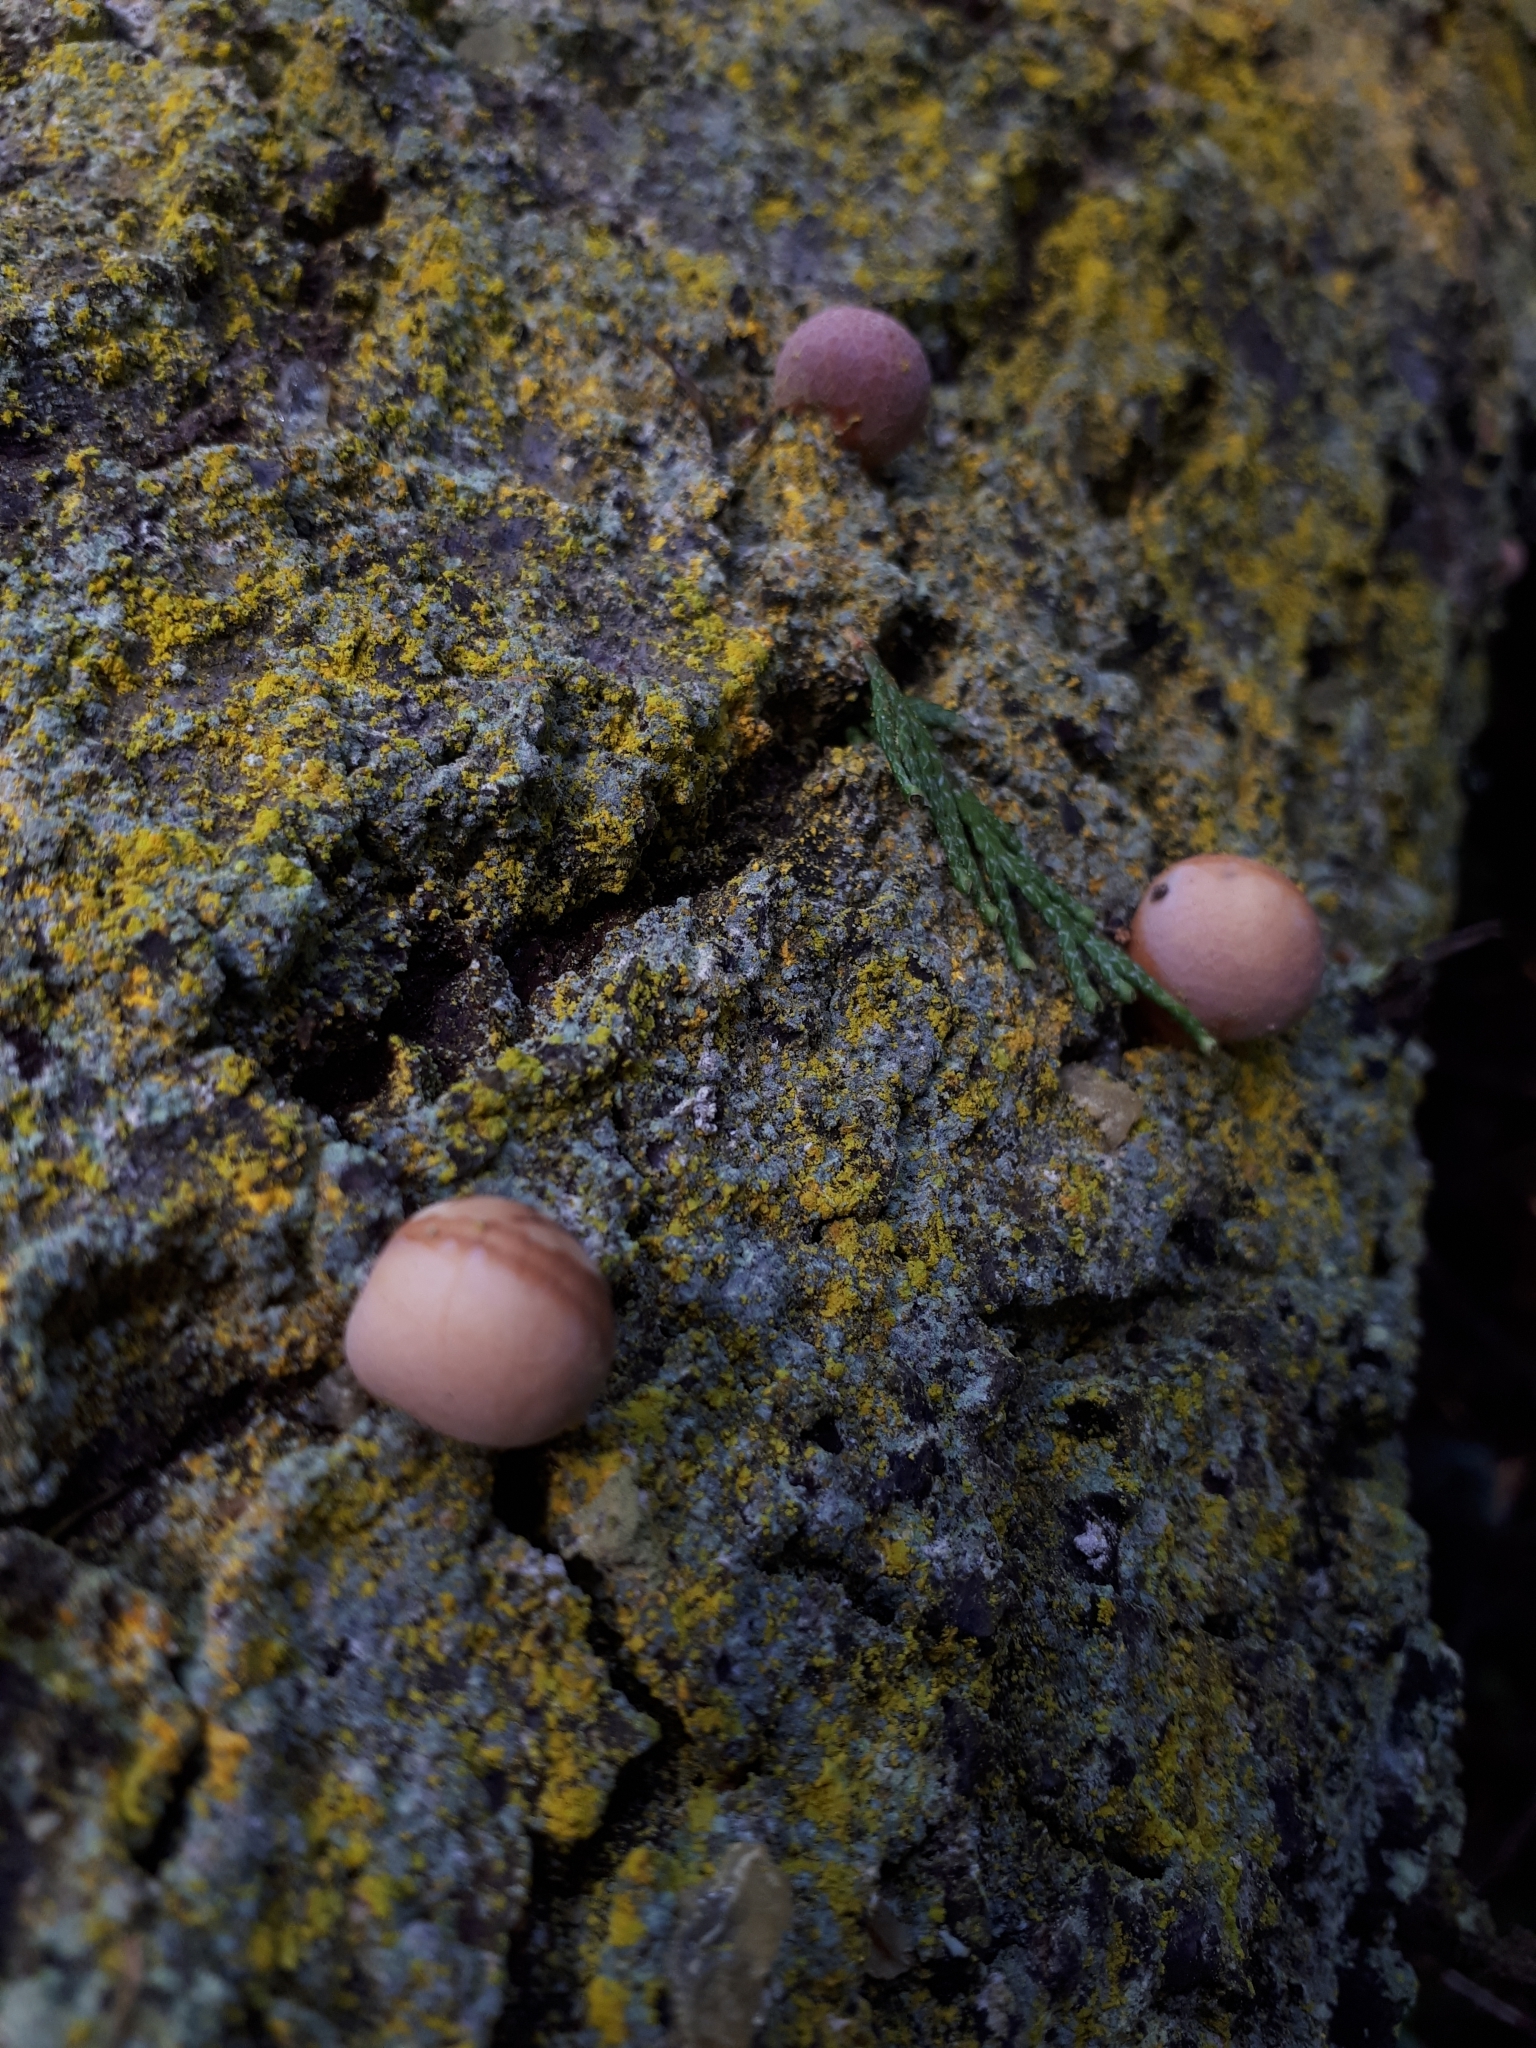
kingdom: Fungi
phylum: Basidiomycota
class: Agaricomycetes
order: Polyporales
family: Polyporaceae
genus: Cryptoporus
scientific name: Cryptoporus volvatus
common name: Veiled polypore
